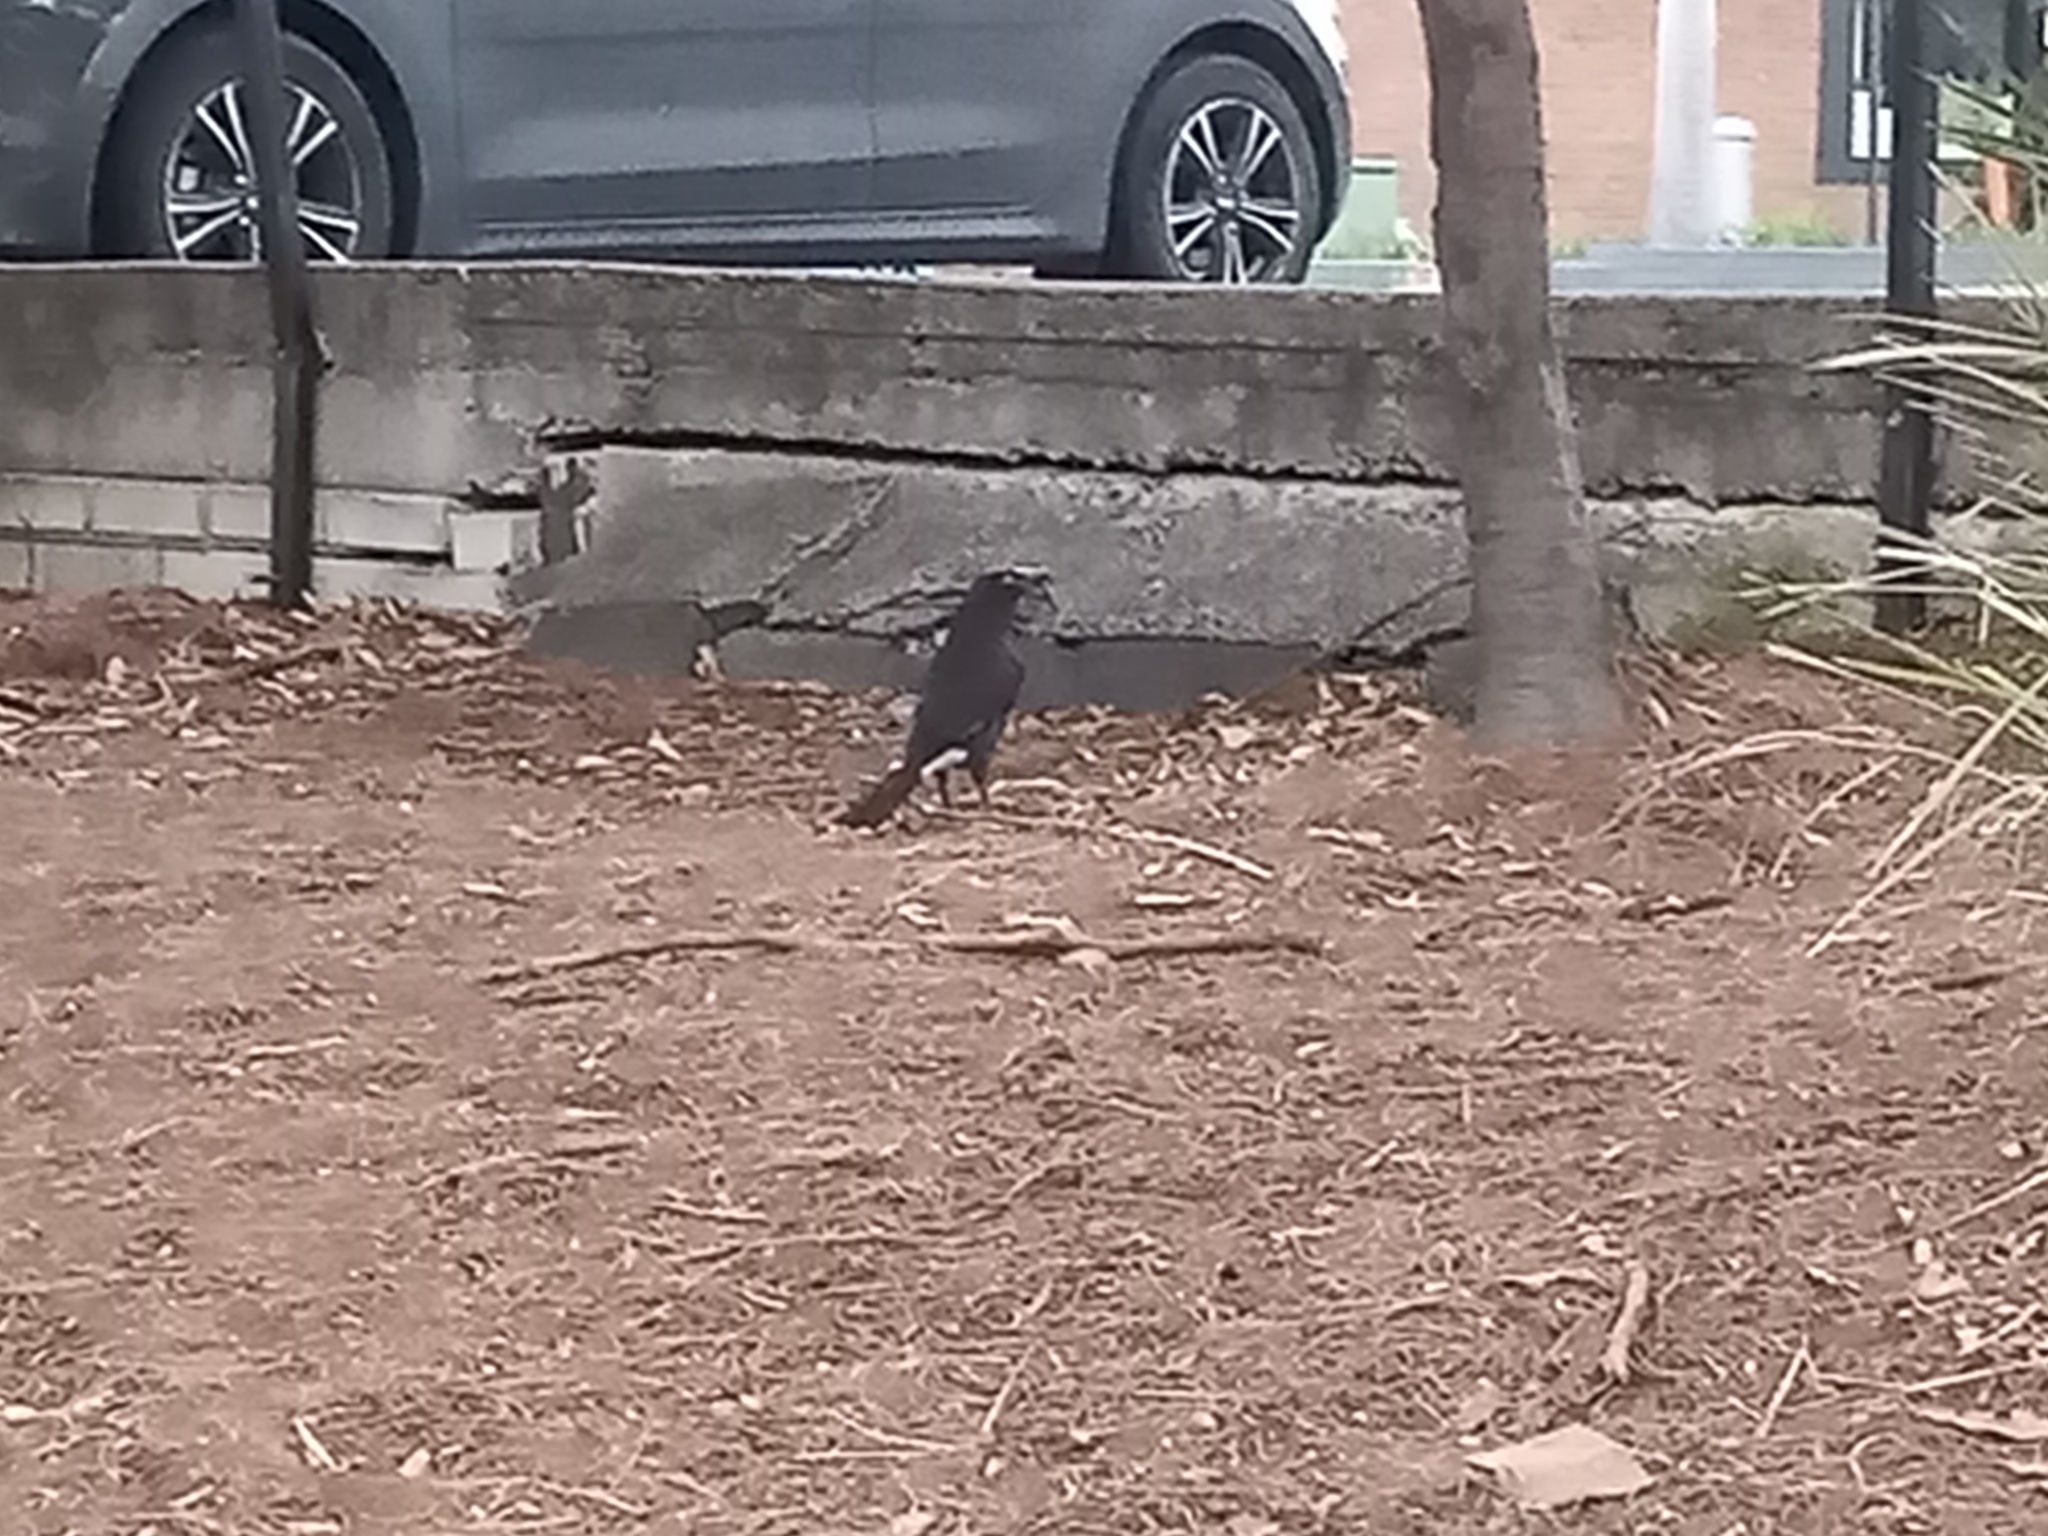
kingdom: Animalia
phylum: Chordata
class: Aves
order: Passeriformes
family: Cracticidae
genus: Strepera
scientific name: Strepera graculina
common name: Pied currawong
